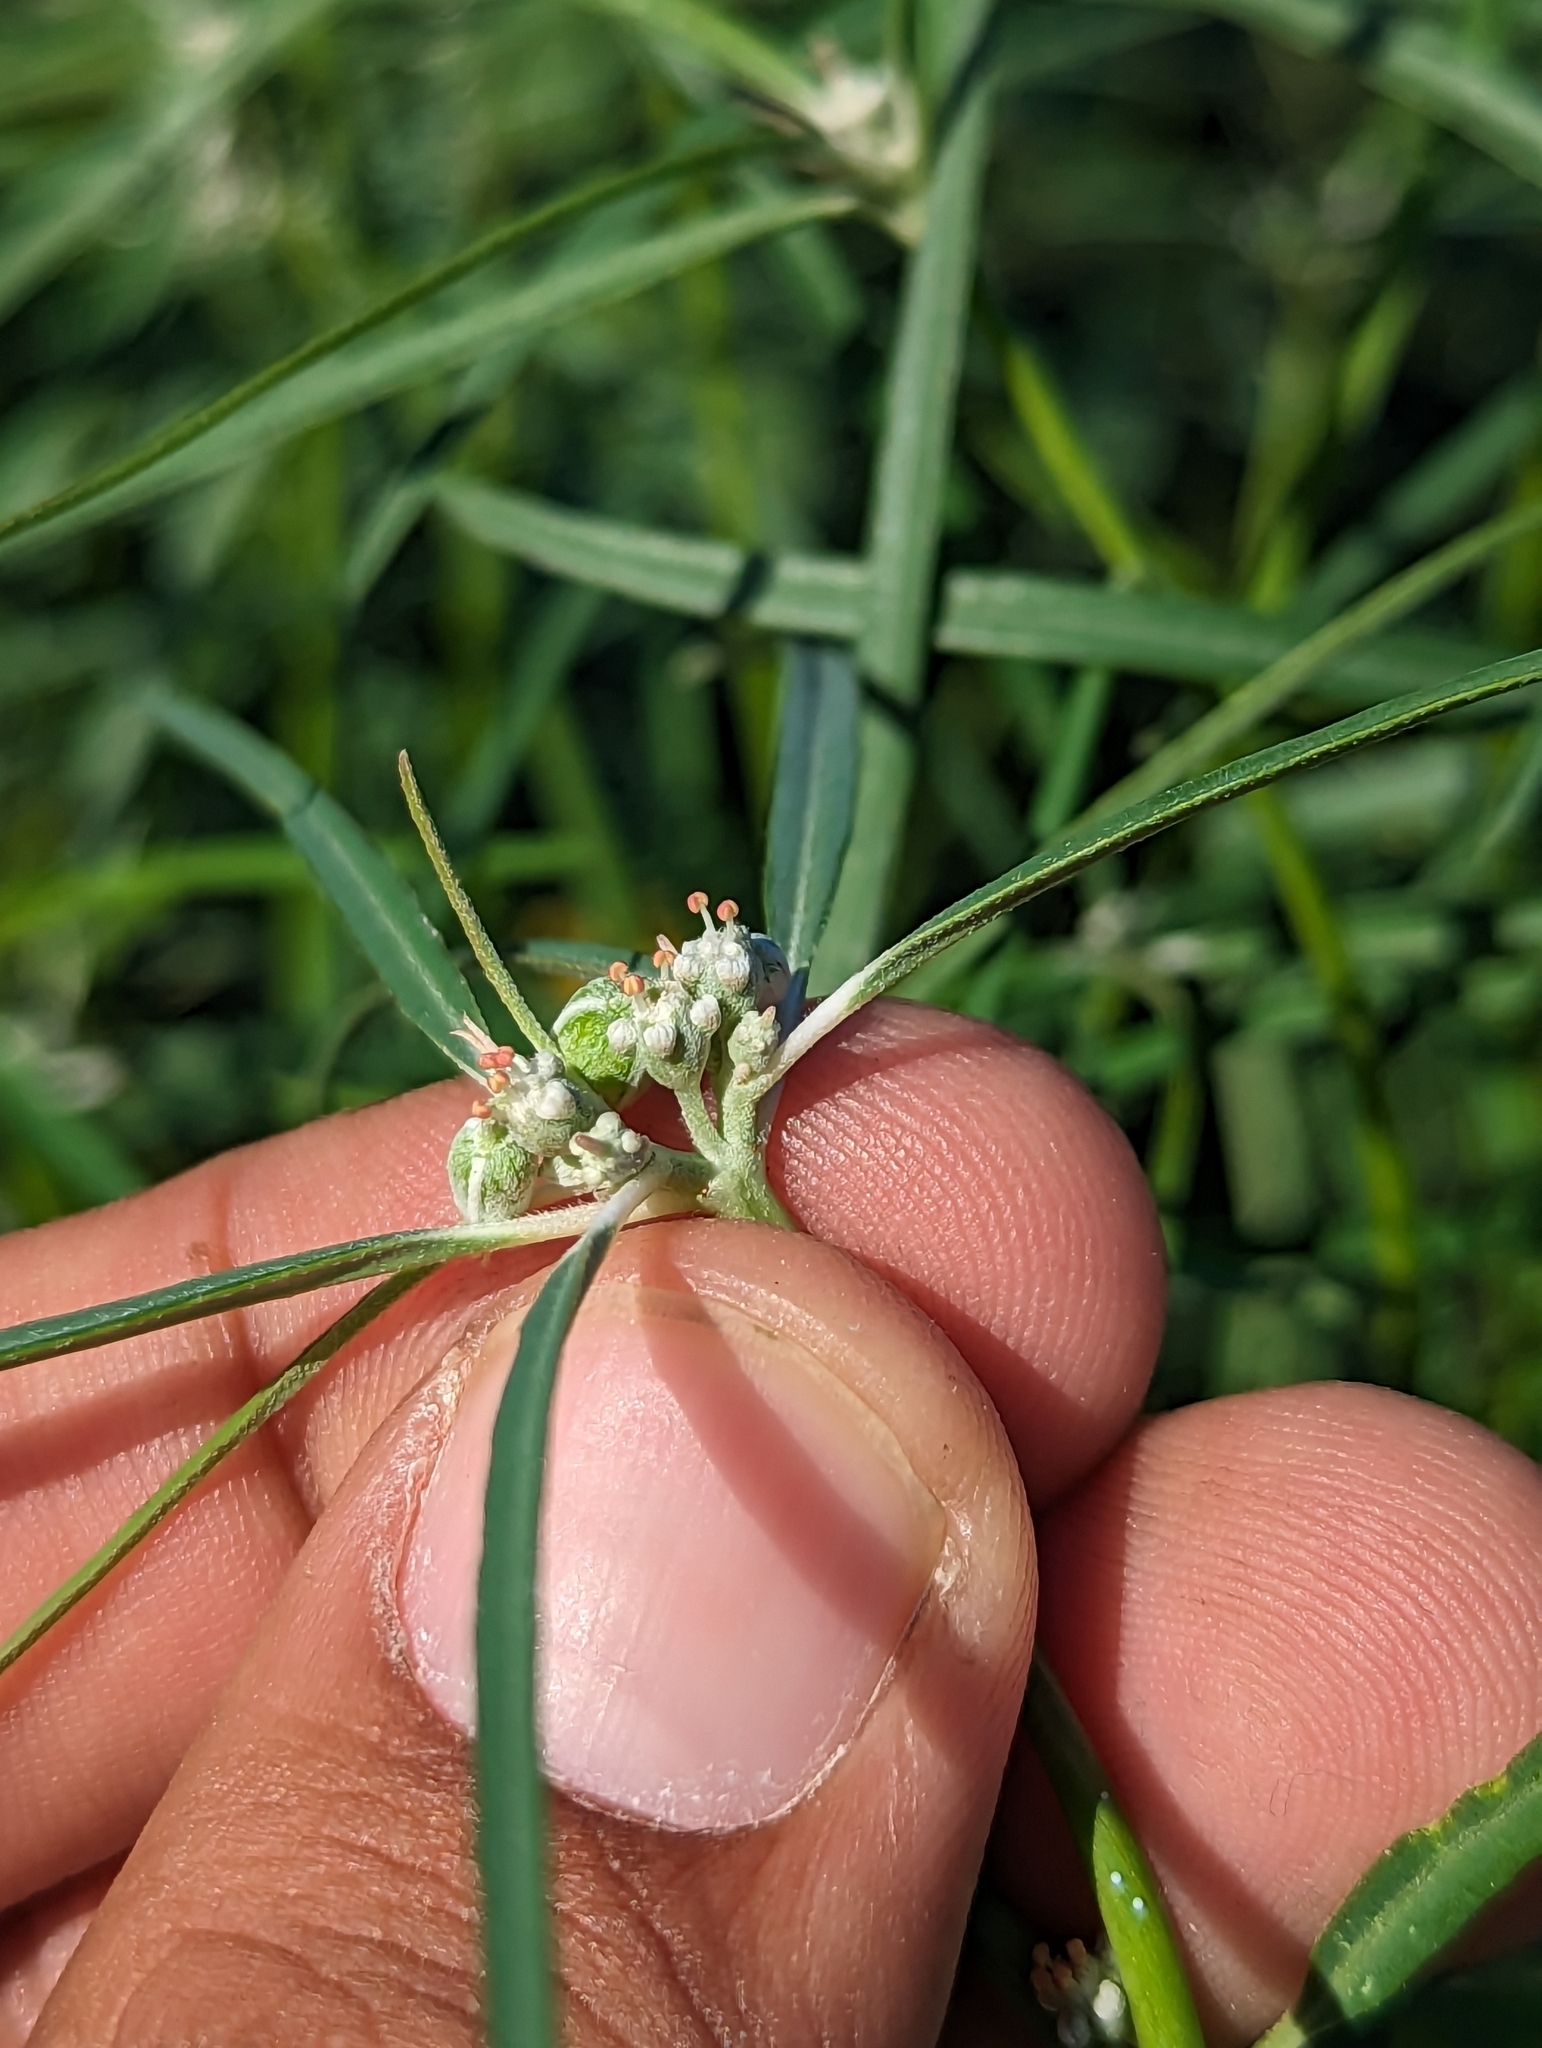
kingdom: Plantae
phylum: Tracheophyta
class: Magnoliopsida
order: Malpighiales
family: Euphorbiaceae
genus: Euphorbia
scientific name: Euphorbia eriantha
